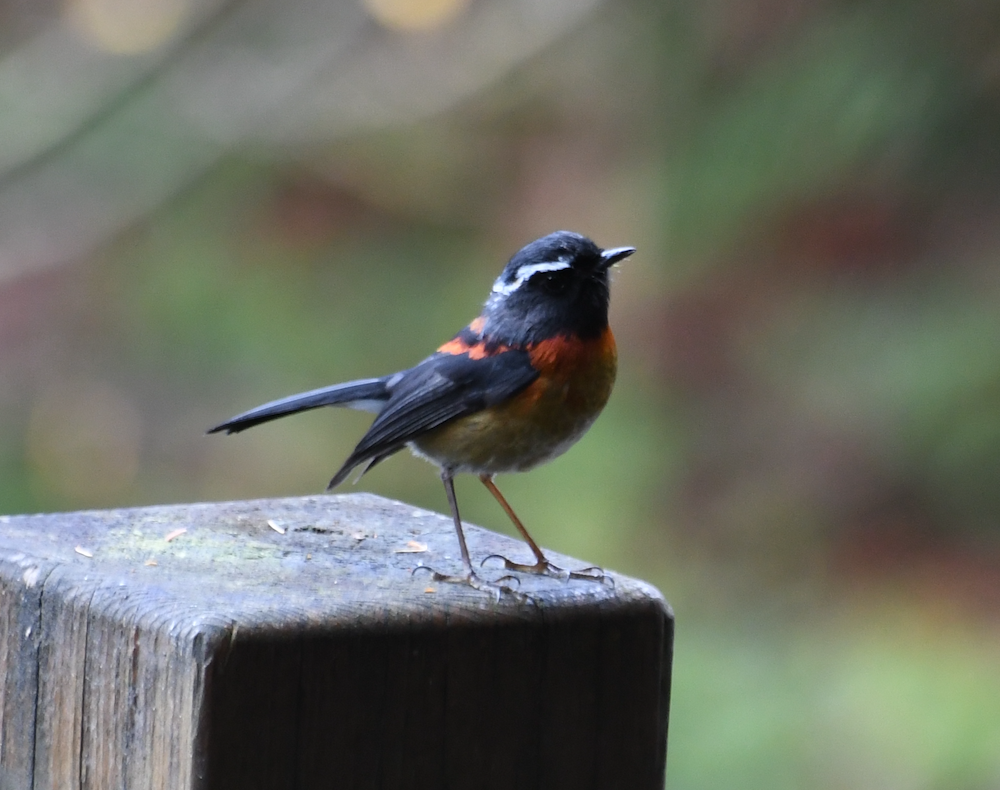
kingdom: Animalia
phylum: Chordata
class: Aves
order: Passeriformes
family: Muscicapidae
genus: Tarsiger
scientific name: Tarsiger johnstoniae
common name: Collared bush robin
